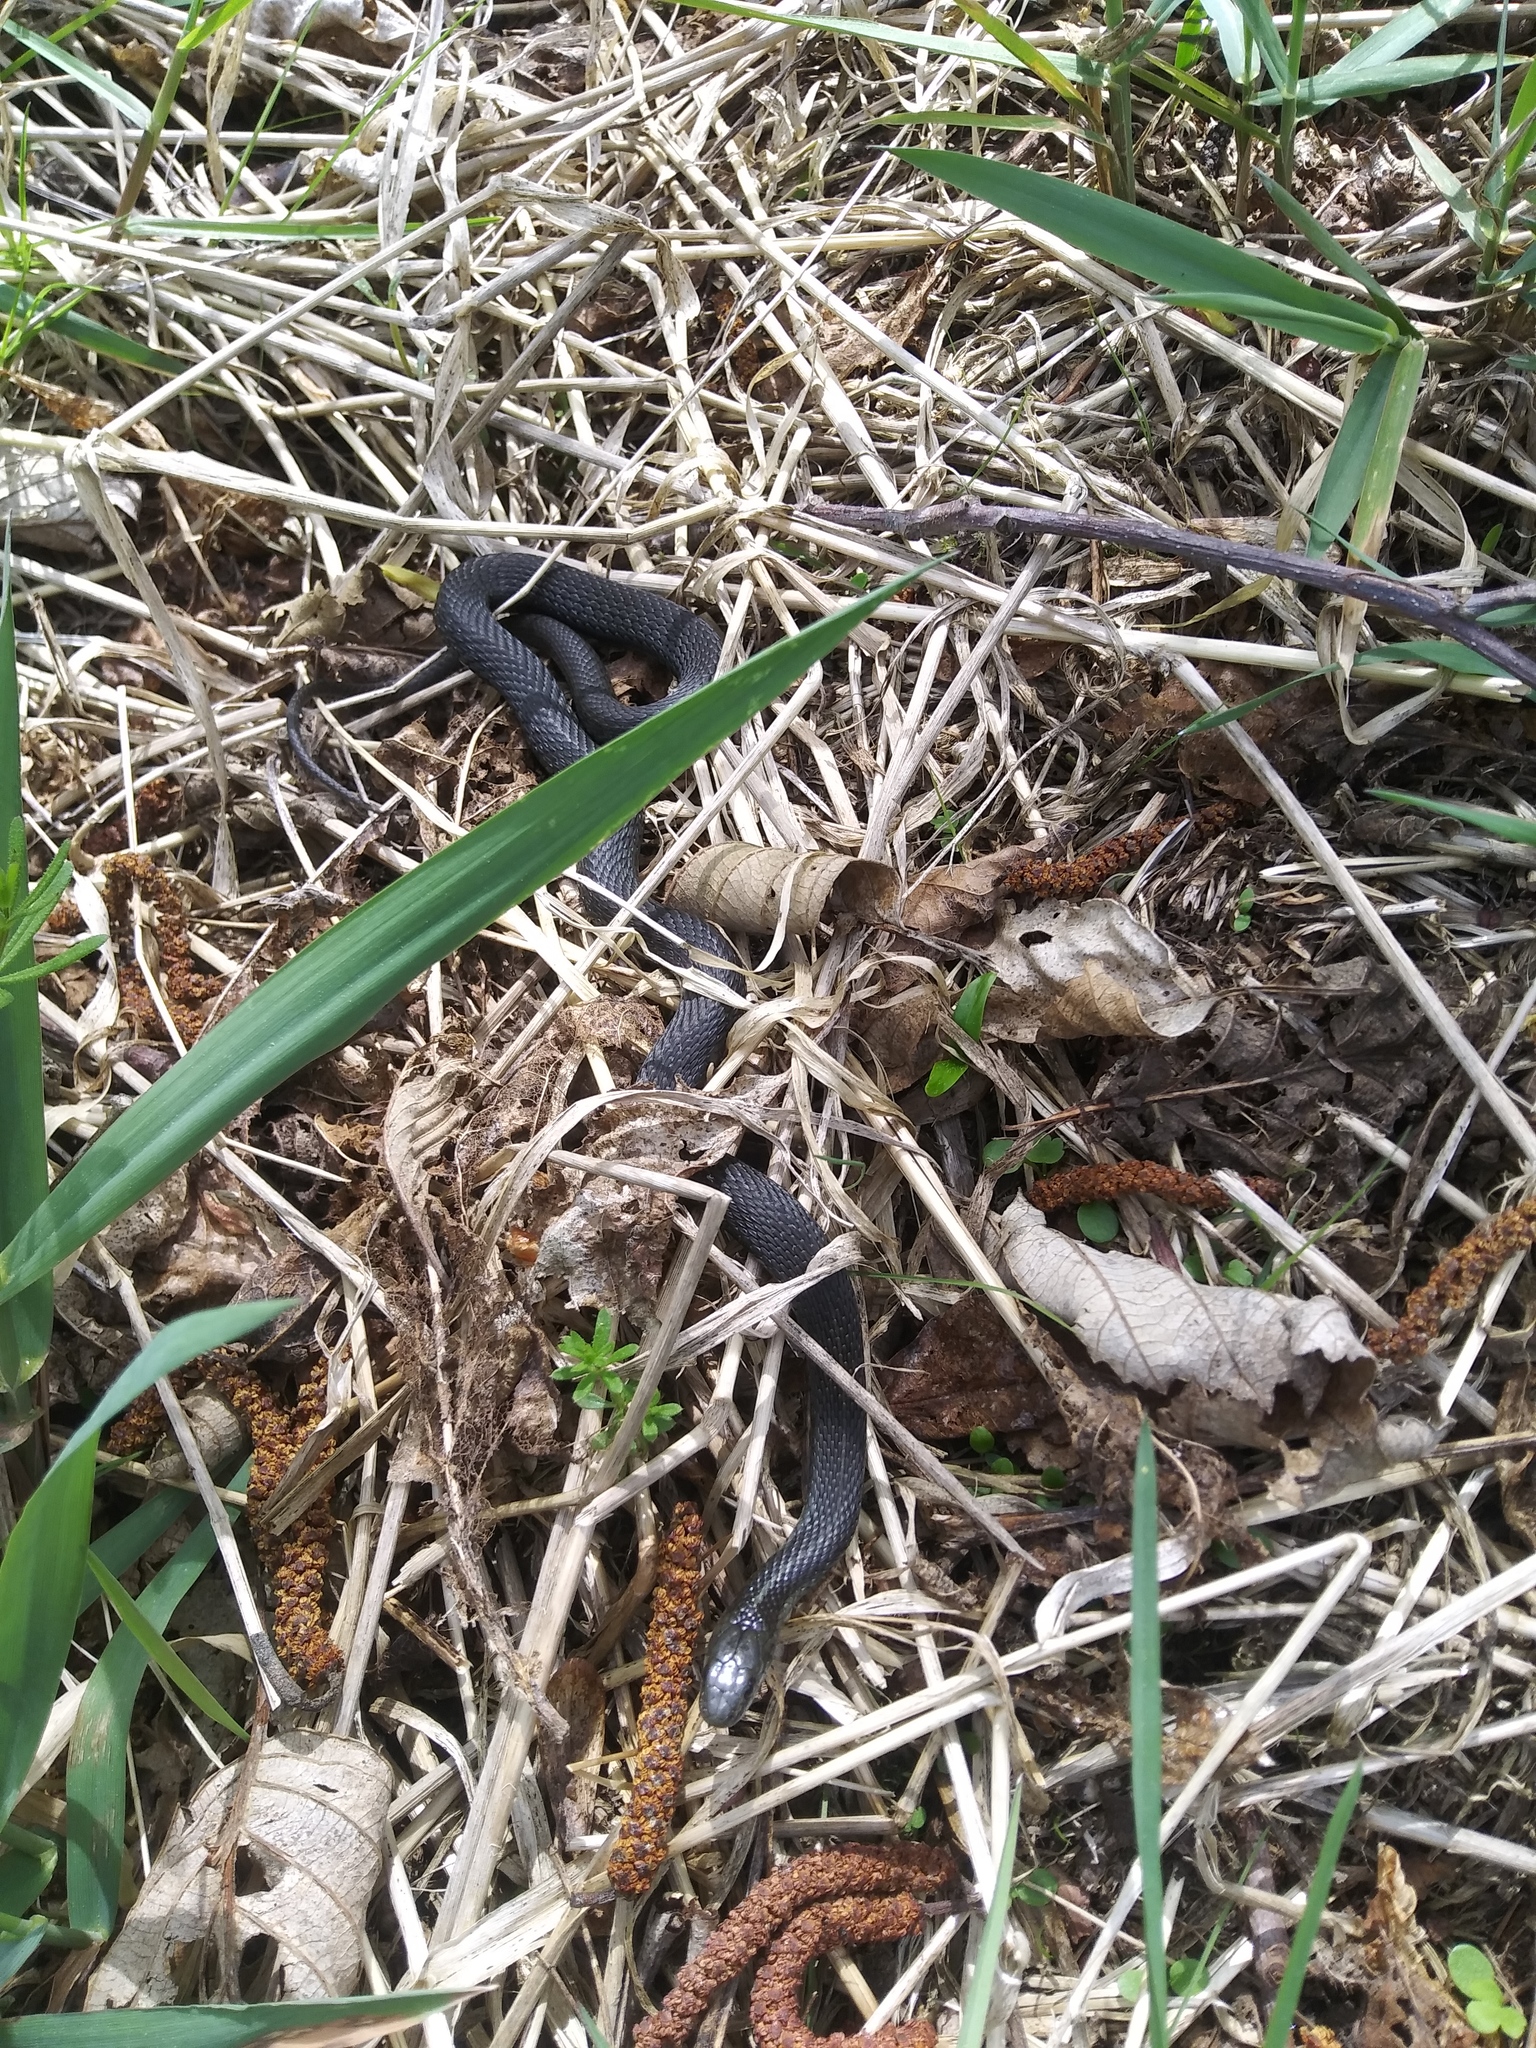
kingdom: Animalia
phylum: Chordata
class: Squamata
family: Colubridae
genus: Thamnophis
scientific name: Thamnophis ordinoides
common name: Northwestern garter snake
